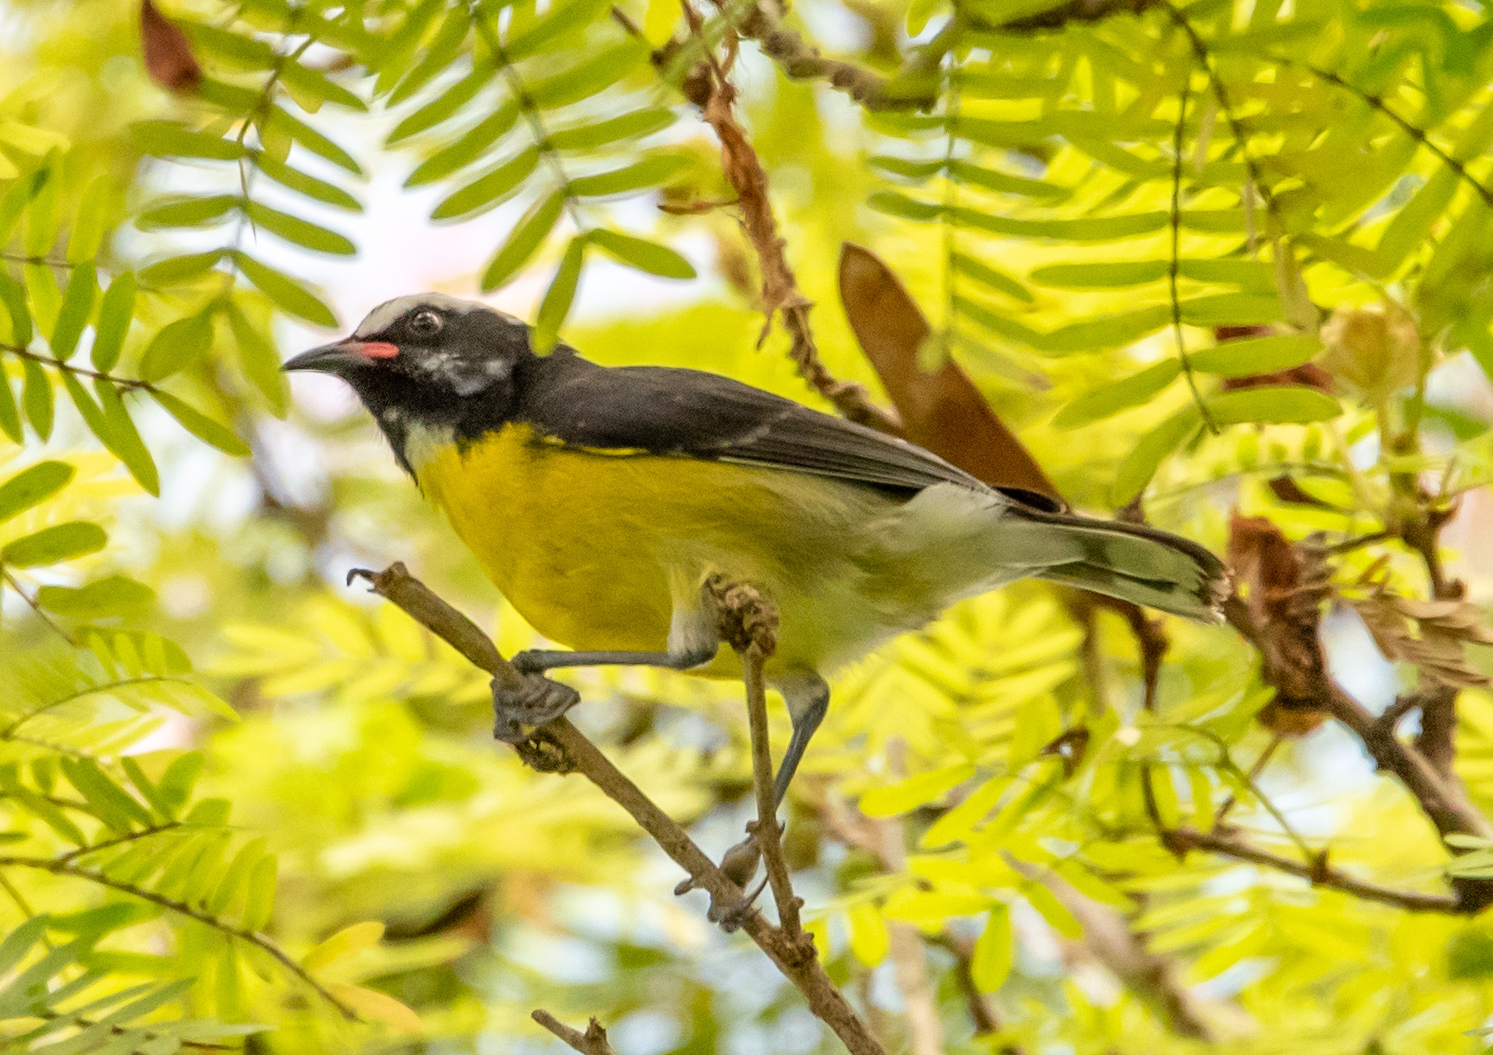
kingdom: Animalia
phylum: Chordata
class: Aves
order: Passeriformes
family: Thraupidae
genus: Coereba
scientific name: Coereba flaveola
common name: Bananaquit
